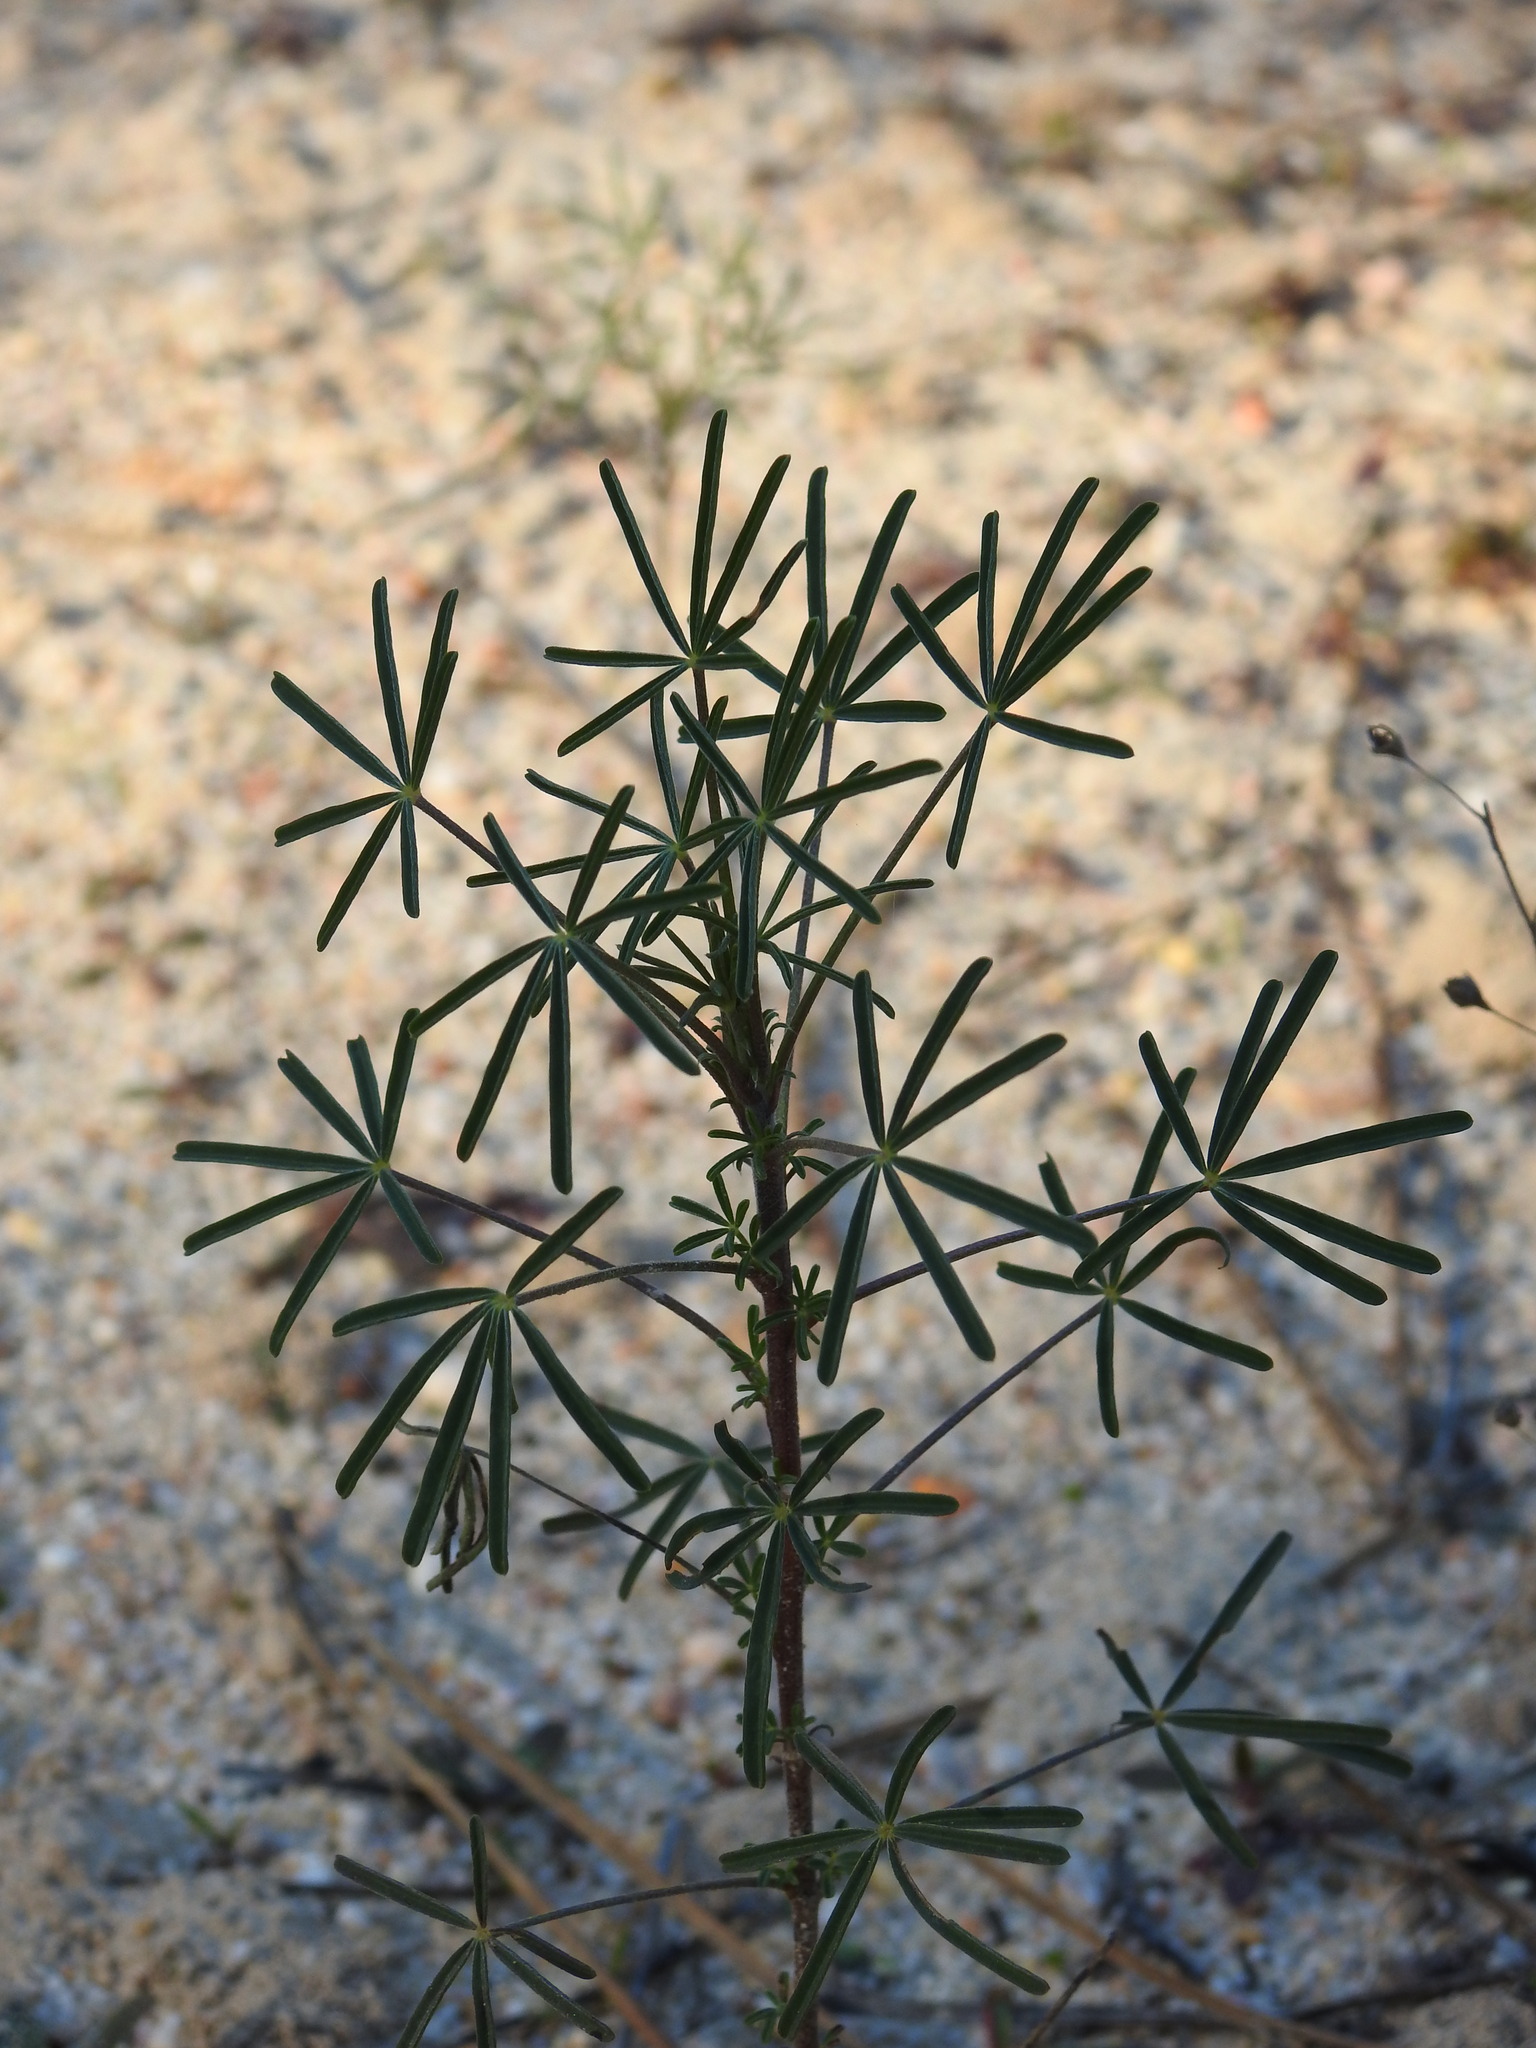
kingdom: Plantae
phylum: Tracheophyta
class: Magnoliopsida
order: Fabales
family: Fabaceae
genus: Lupinus
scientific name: Lupinus angustifolius
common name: Narrow-leaved lupin
